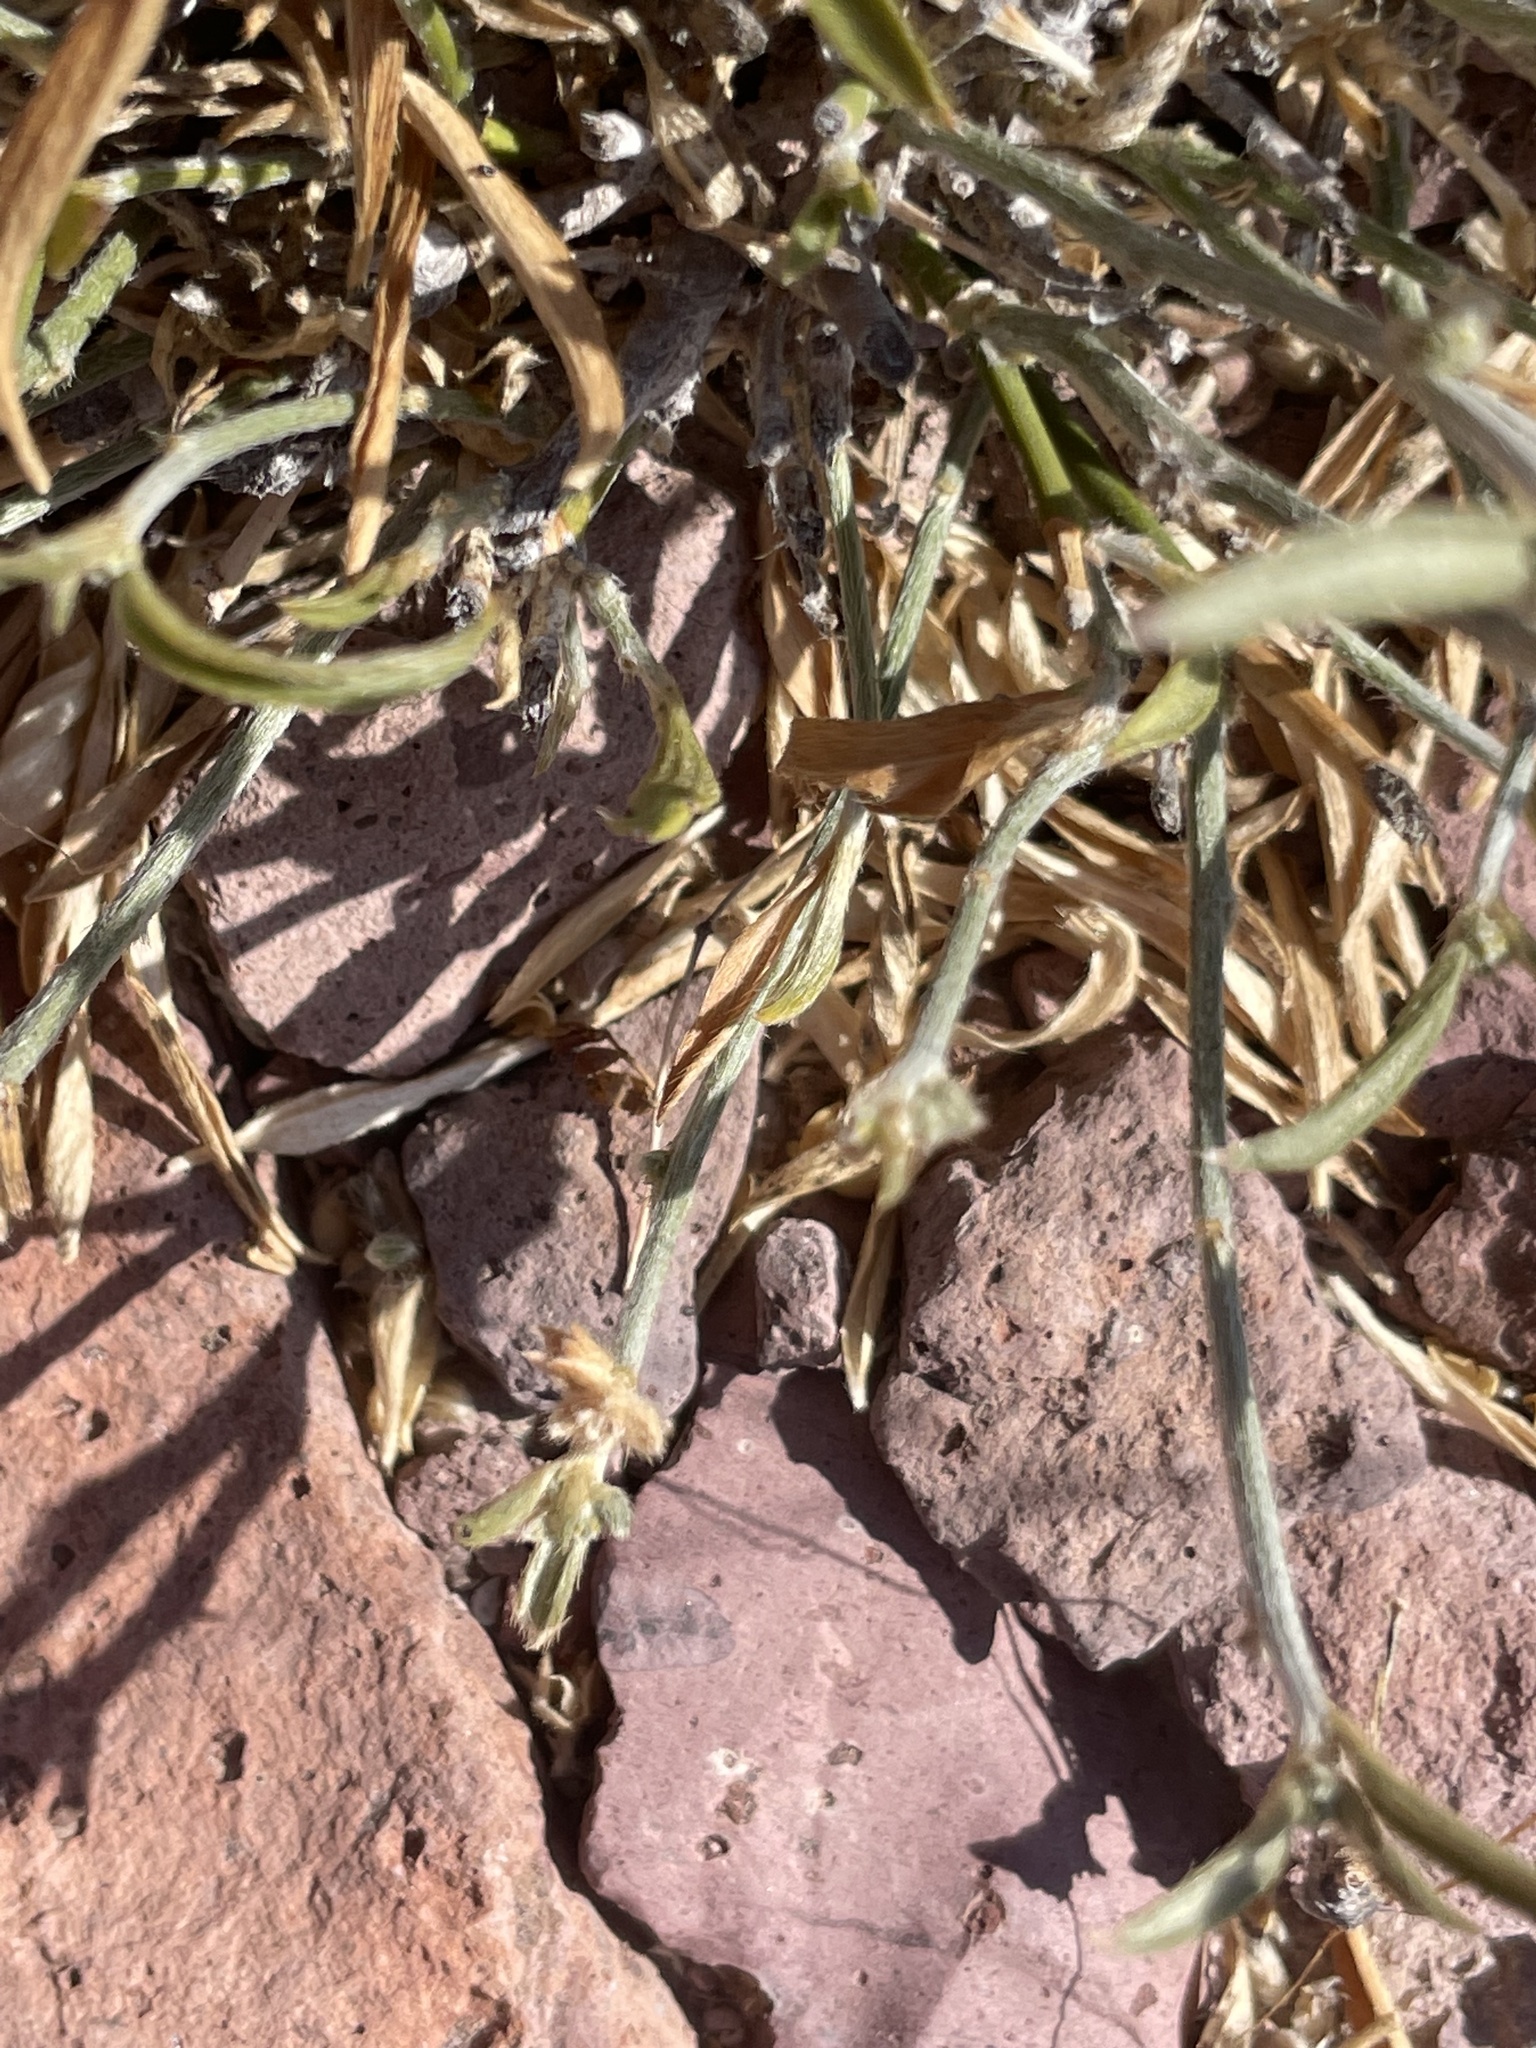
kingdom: Plantae
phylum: Tracheophyta
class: Magnoliopsida
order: Malpighiales
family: Euphorbiaceae
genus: Ditaxis
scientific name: Ditaxis lanceolata
